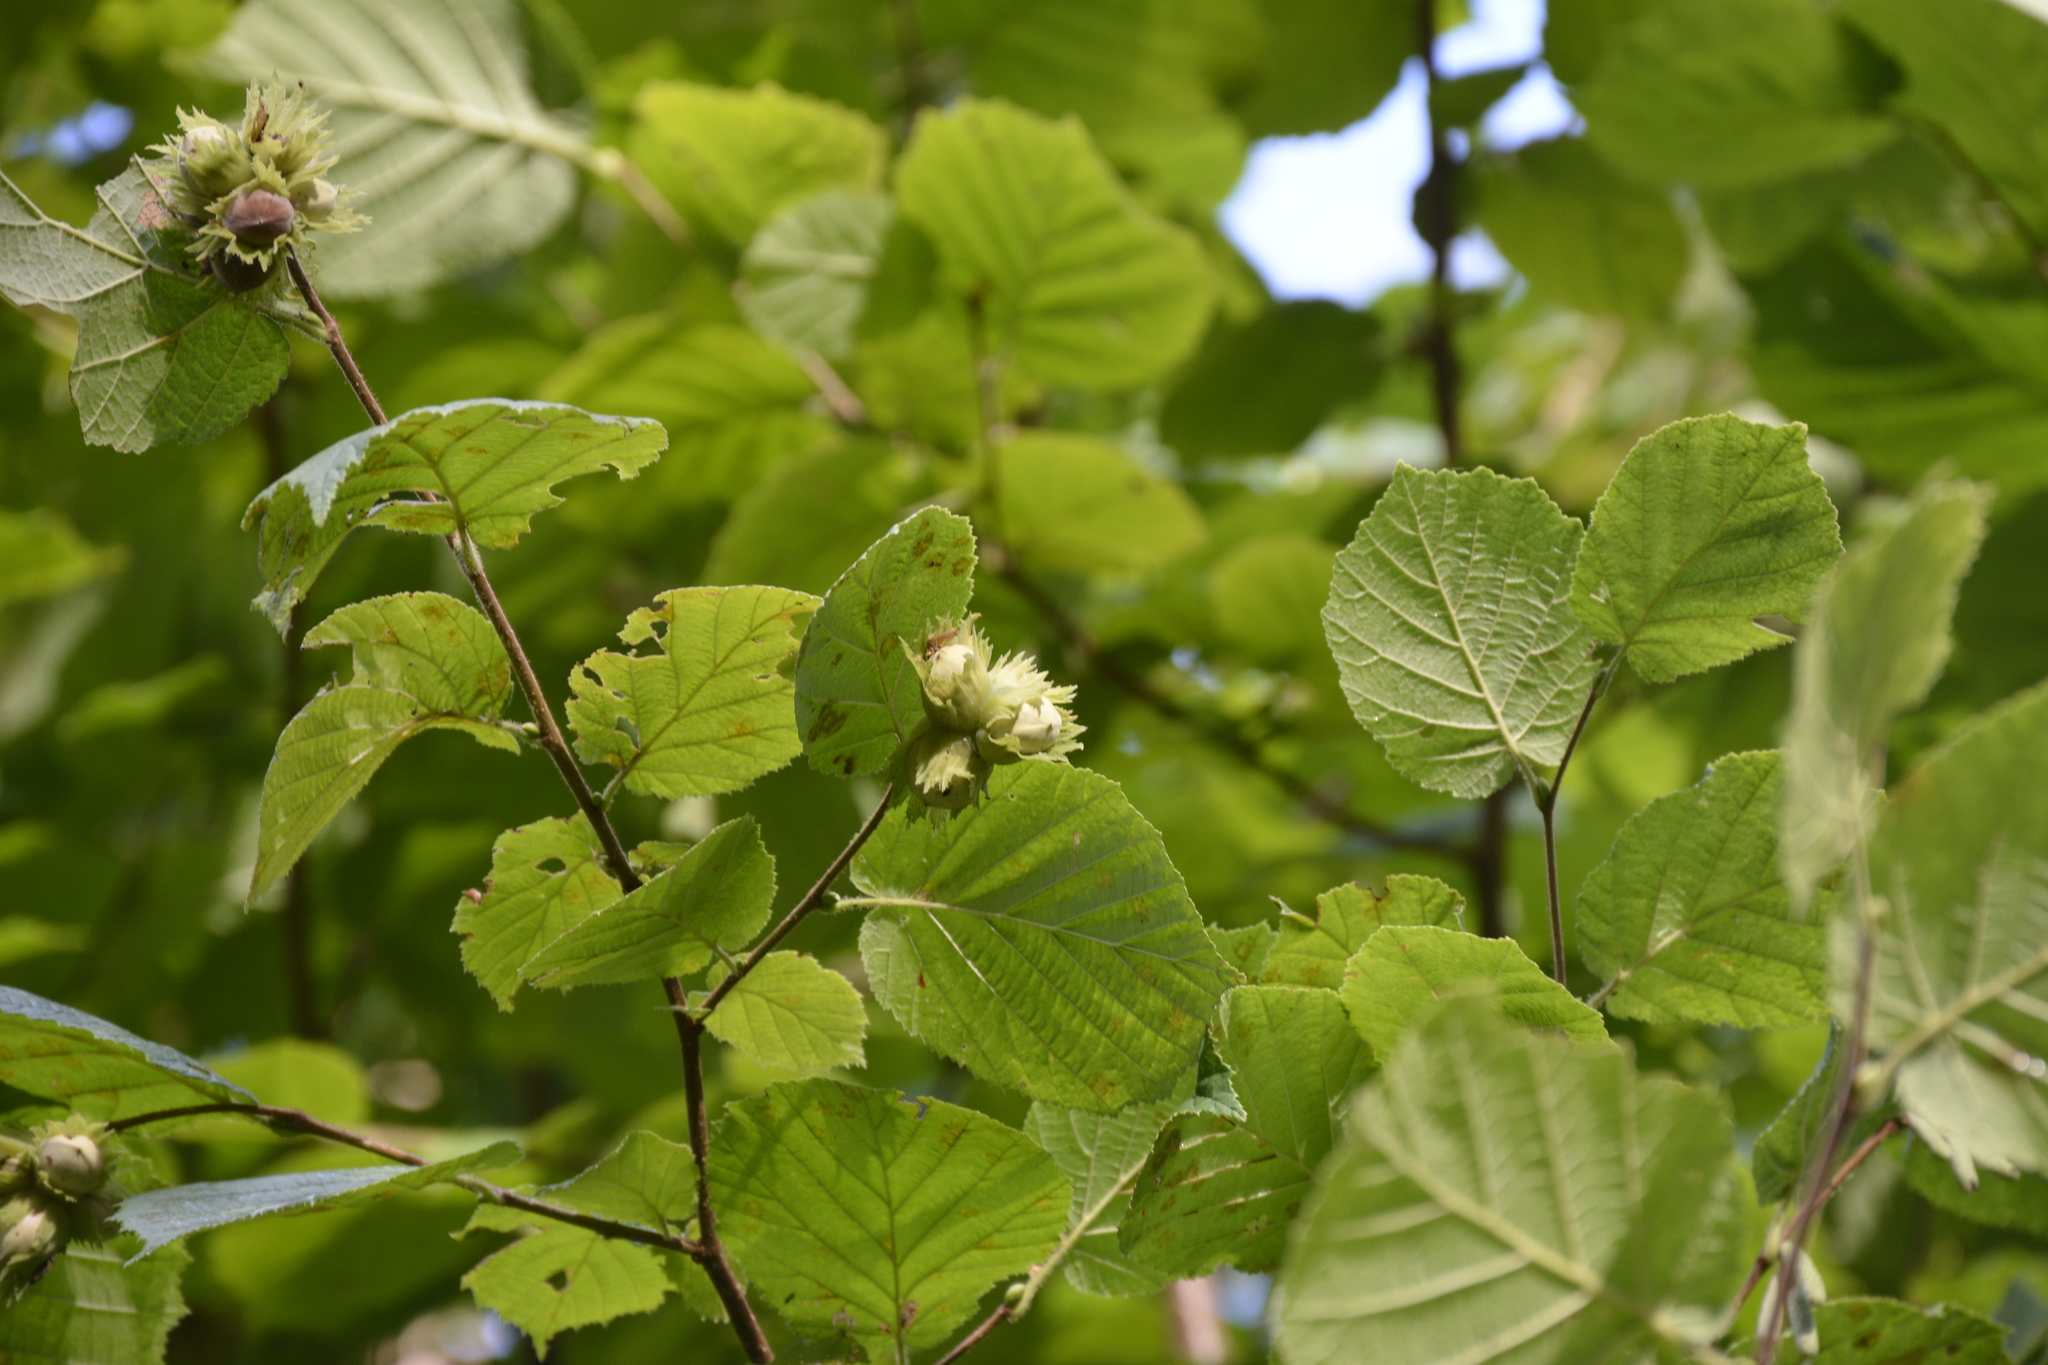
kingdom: Plantae
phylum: Tracheophyta
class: Magnoliopsida
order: Fagales
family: Betulaceae
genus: Corylus
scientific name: Corylus avellana
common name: European hazel
